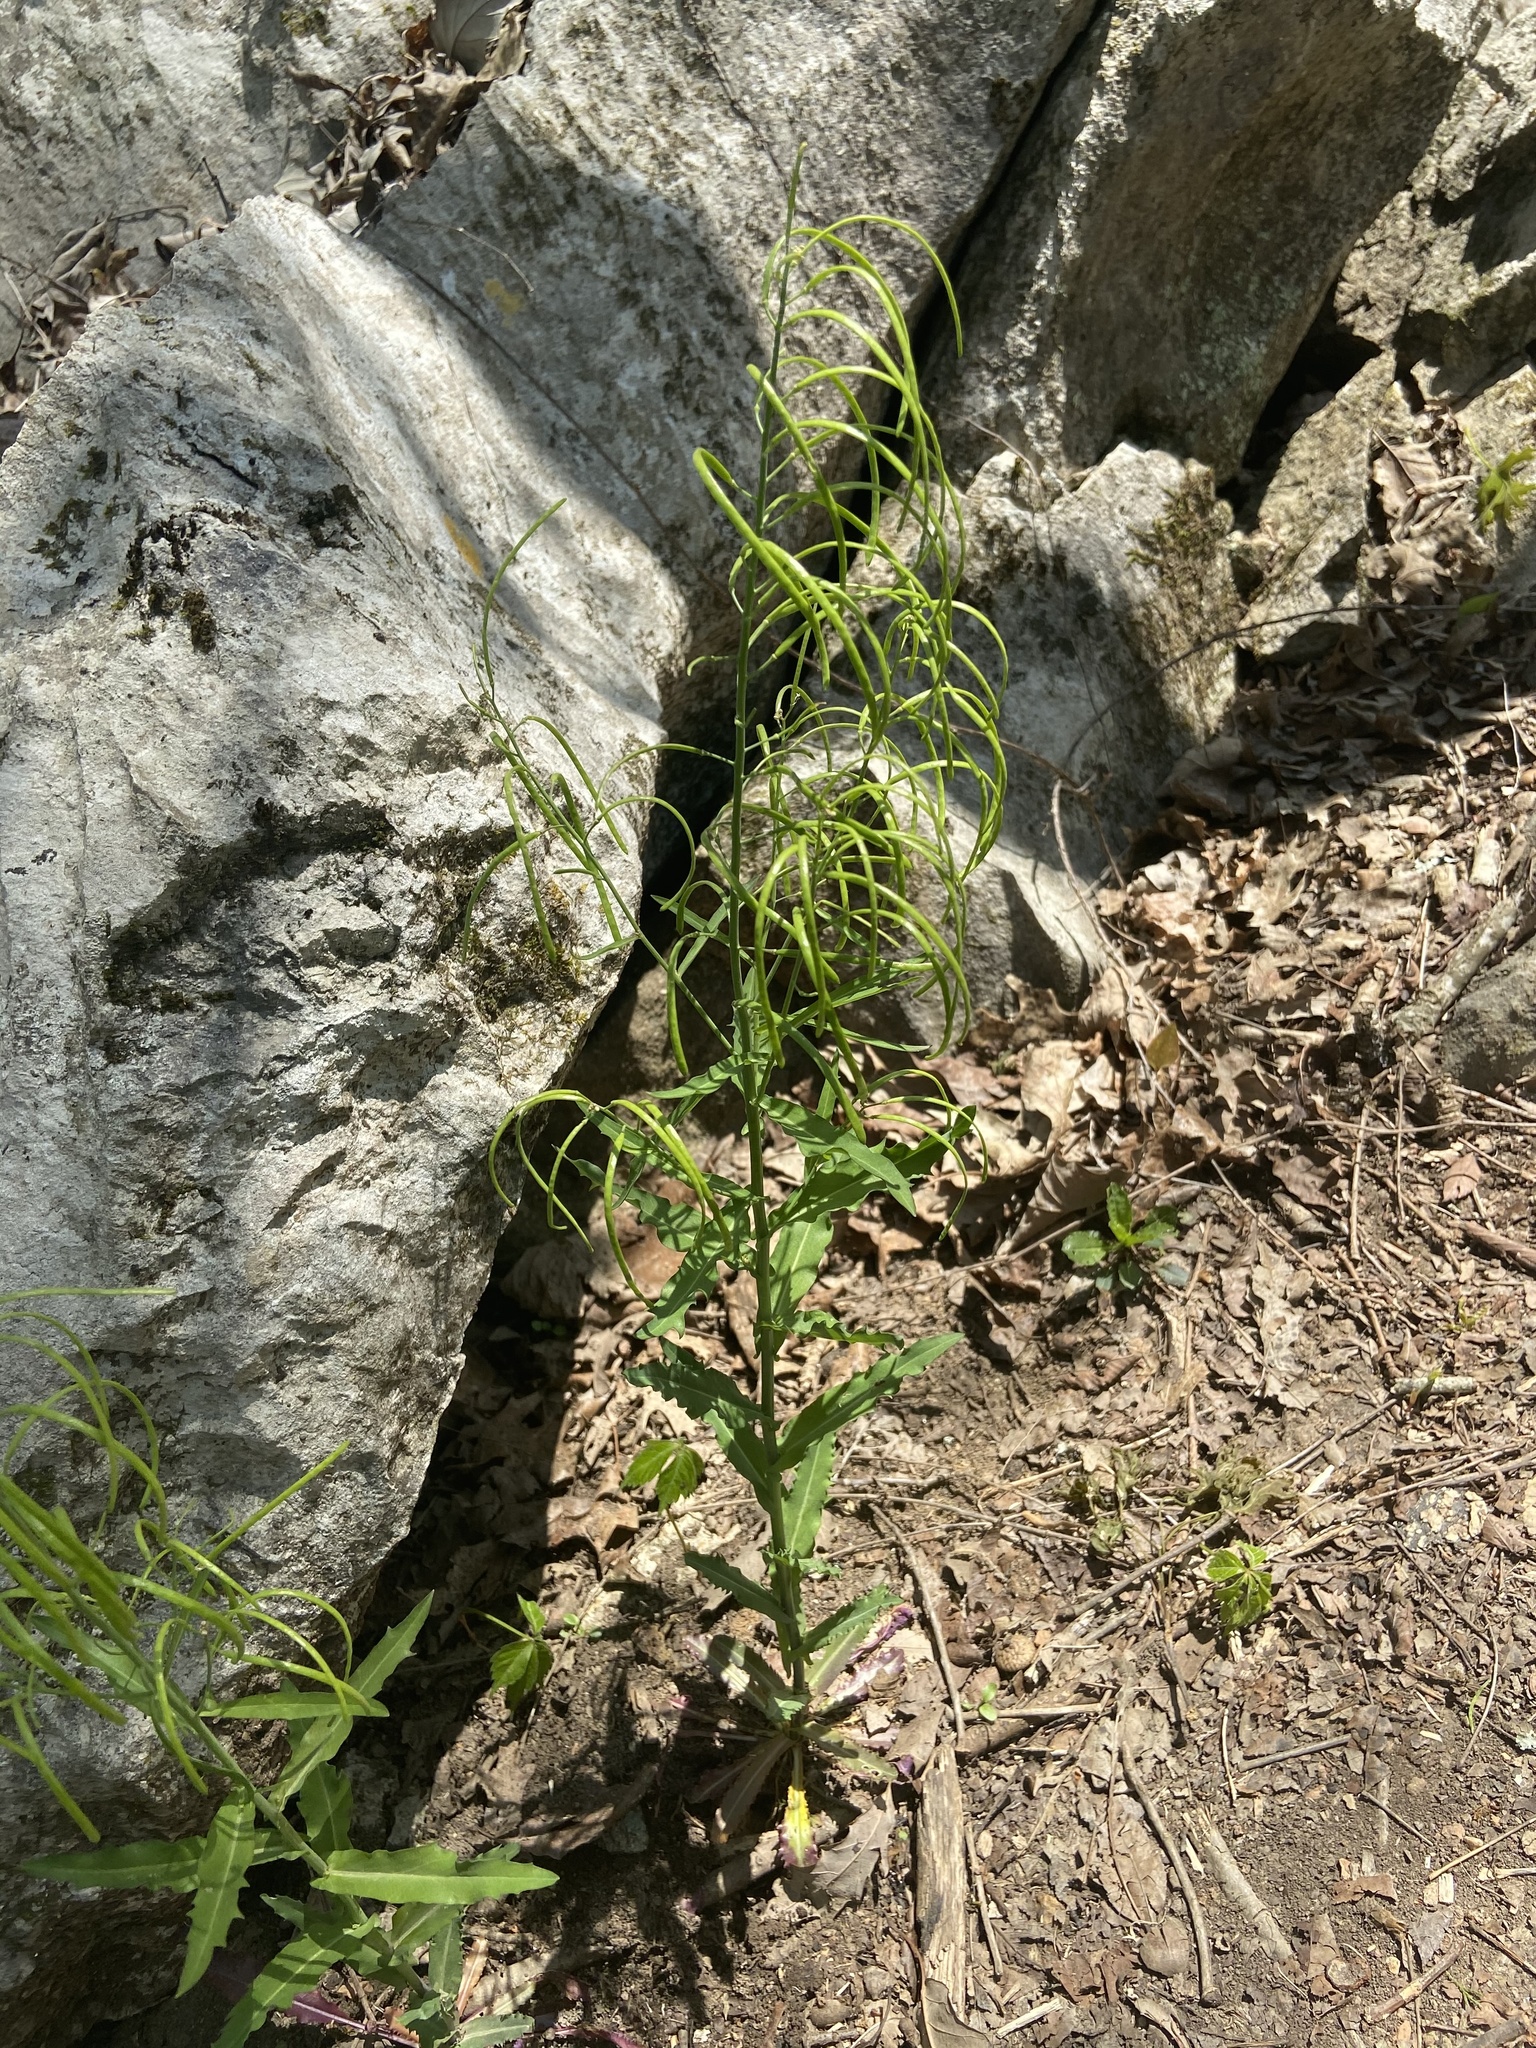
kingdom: Plantae
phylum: Tracheophyta
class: Magnoliopsida
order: Brassicales
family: Brassicaceae
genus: Borodinia
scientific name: Borodinia laevigata
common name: Smooth rockcress
